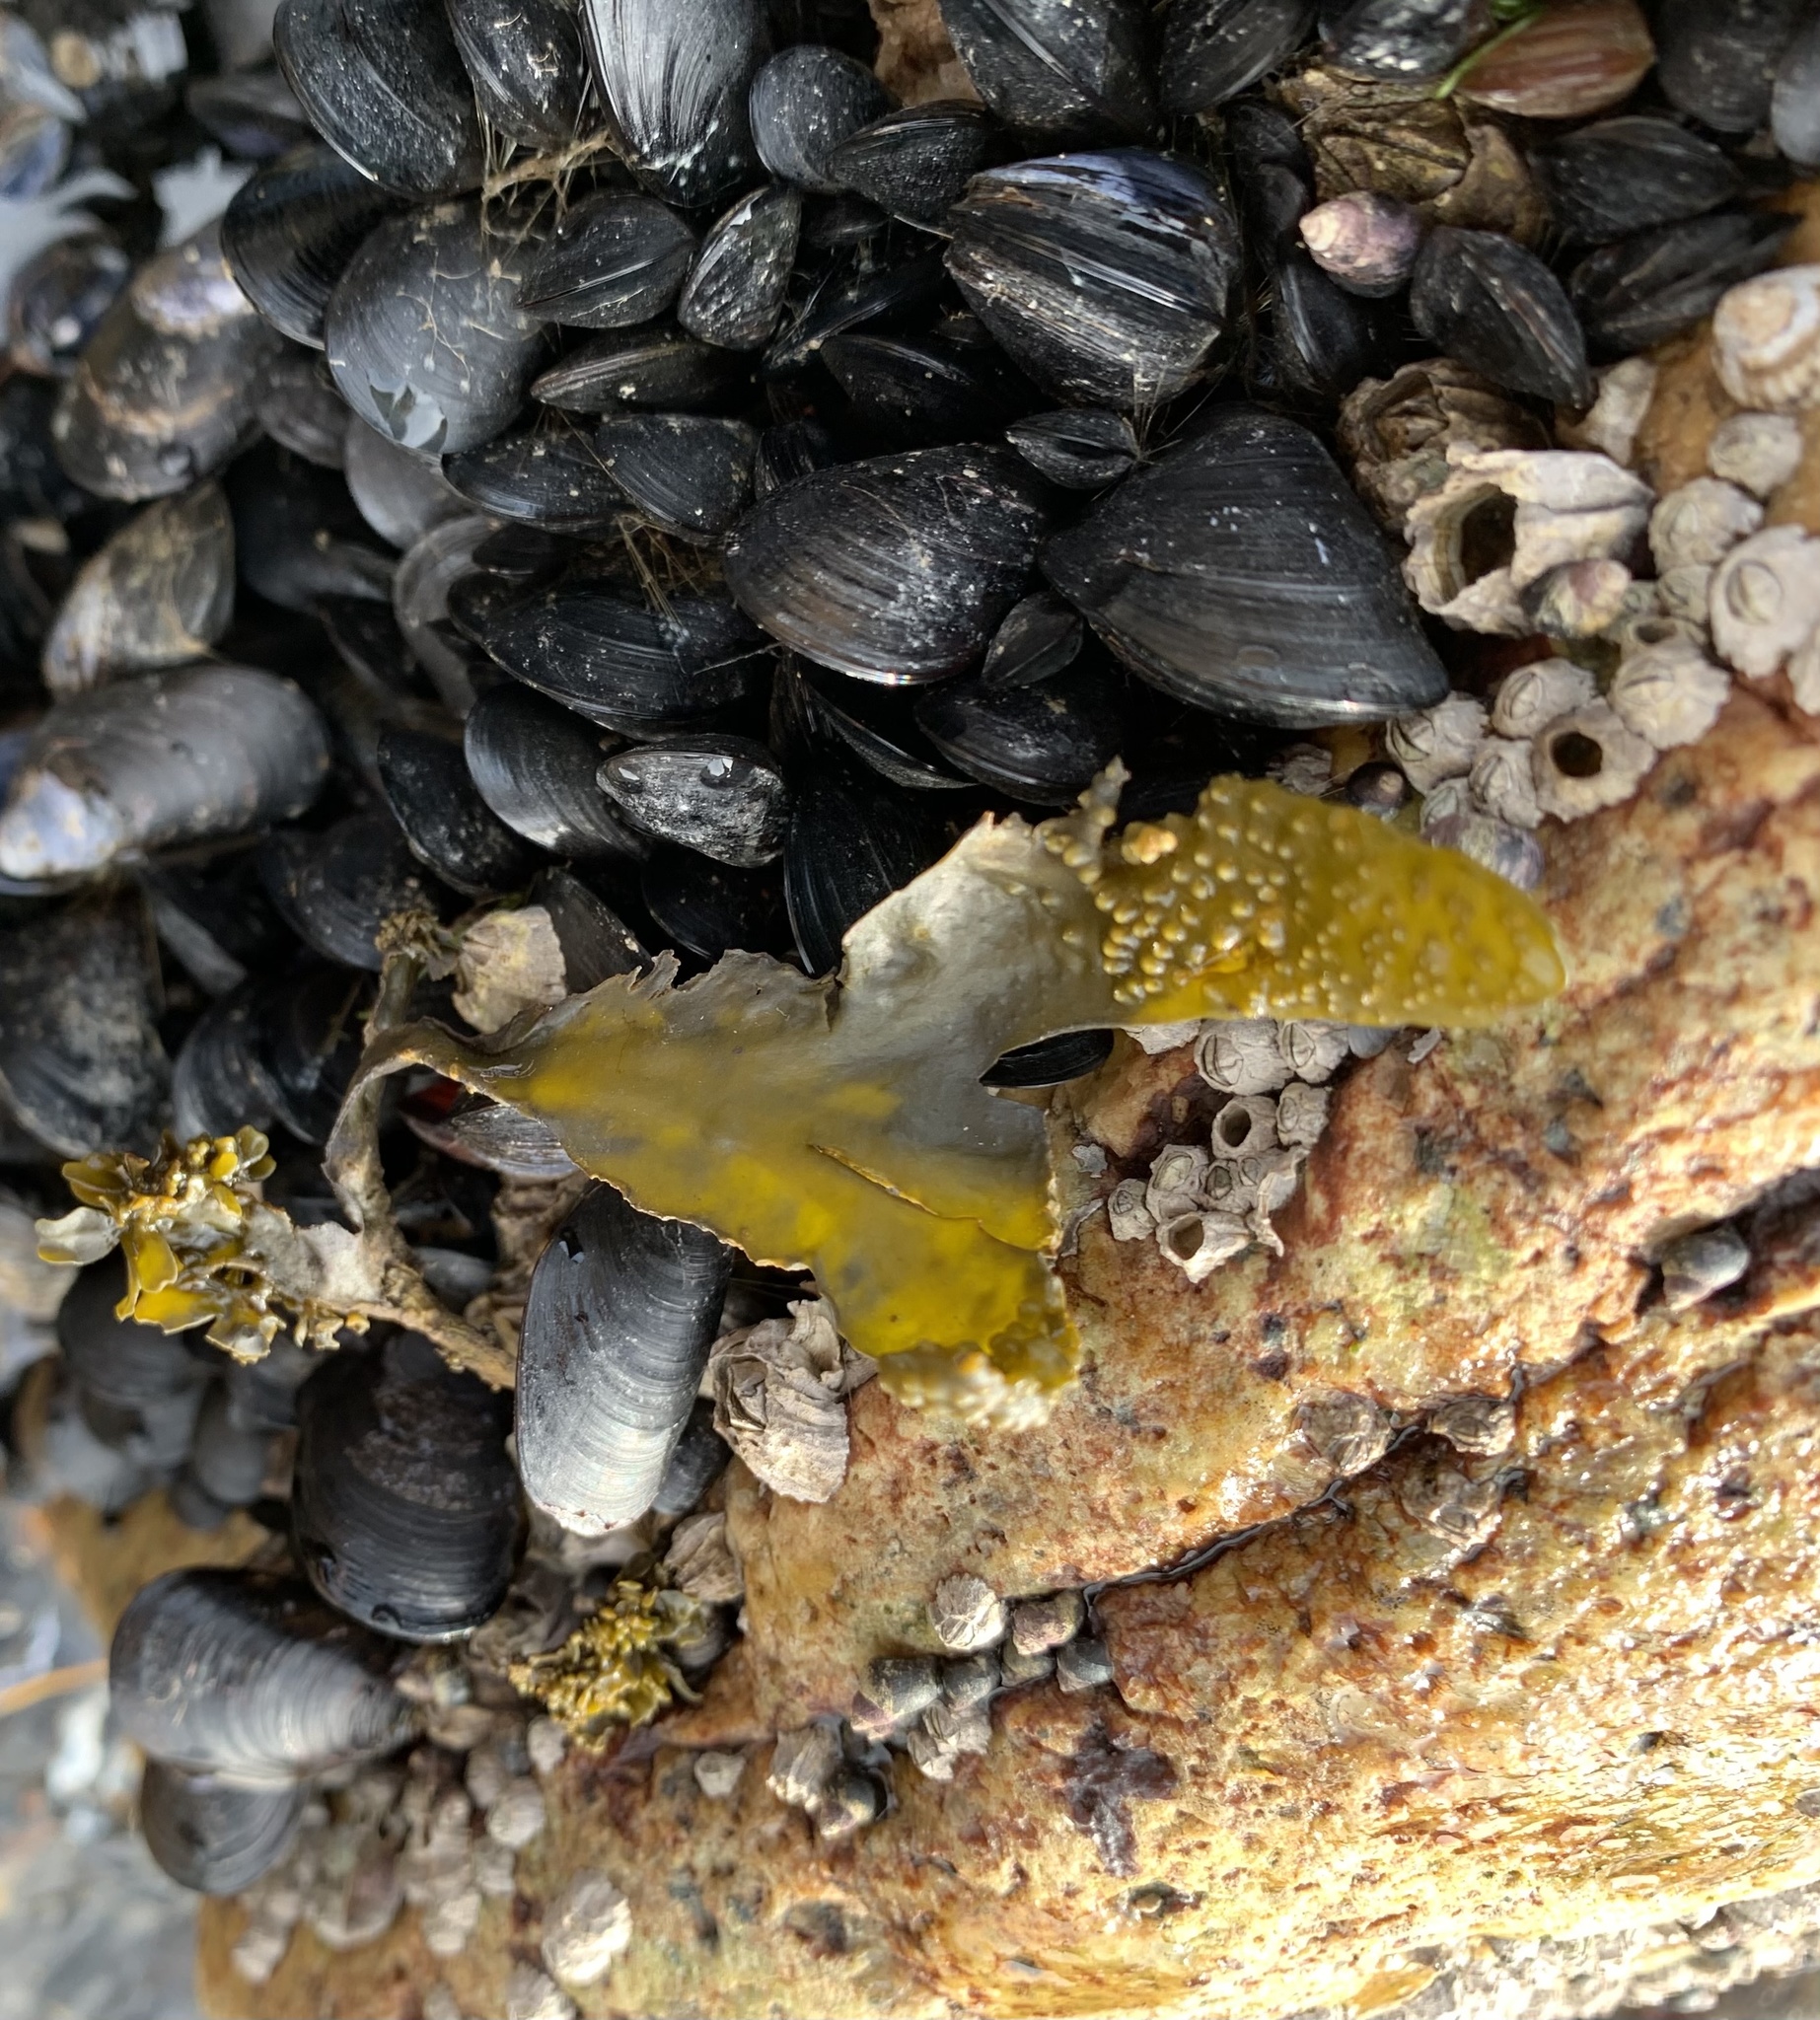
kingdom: Chromista
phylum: Ochrophyta
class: Phaeophyceae
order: Fucales
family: Fucaceae
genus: Fucus
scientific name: Fucus distichus
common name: Rockweed
